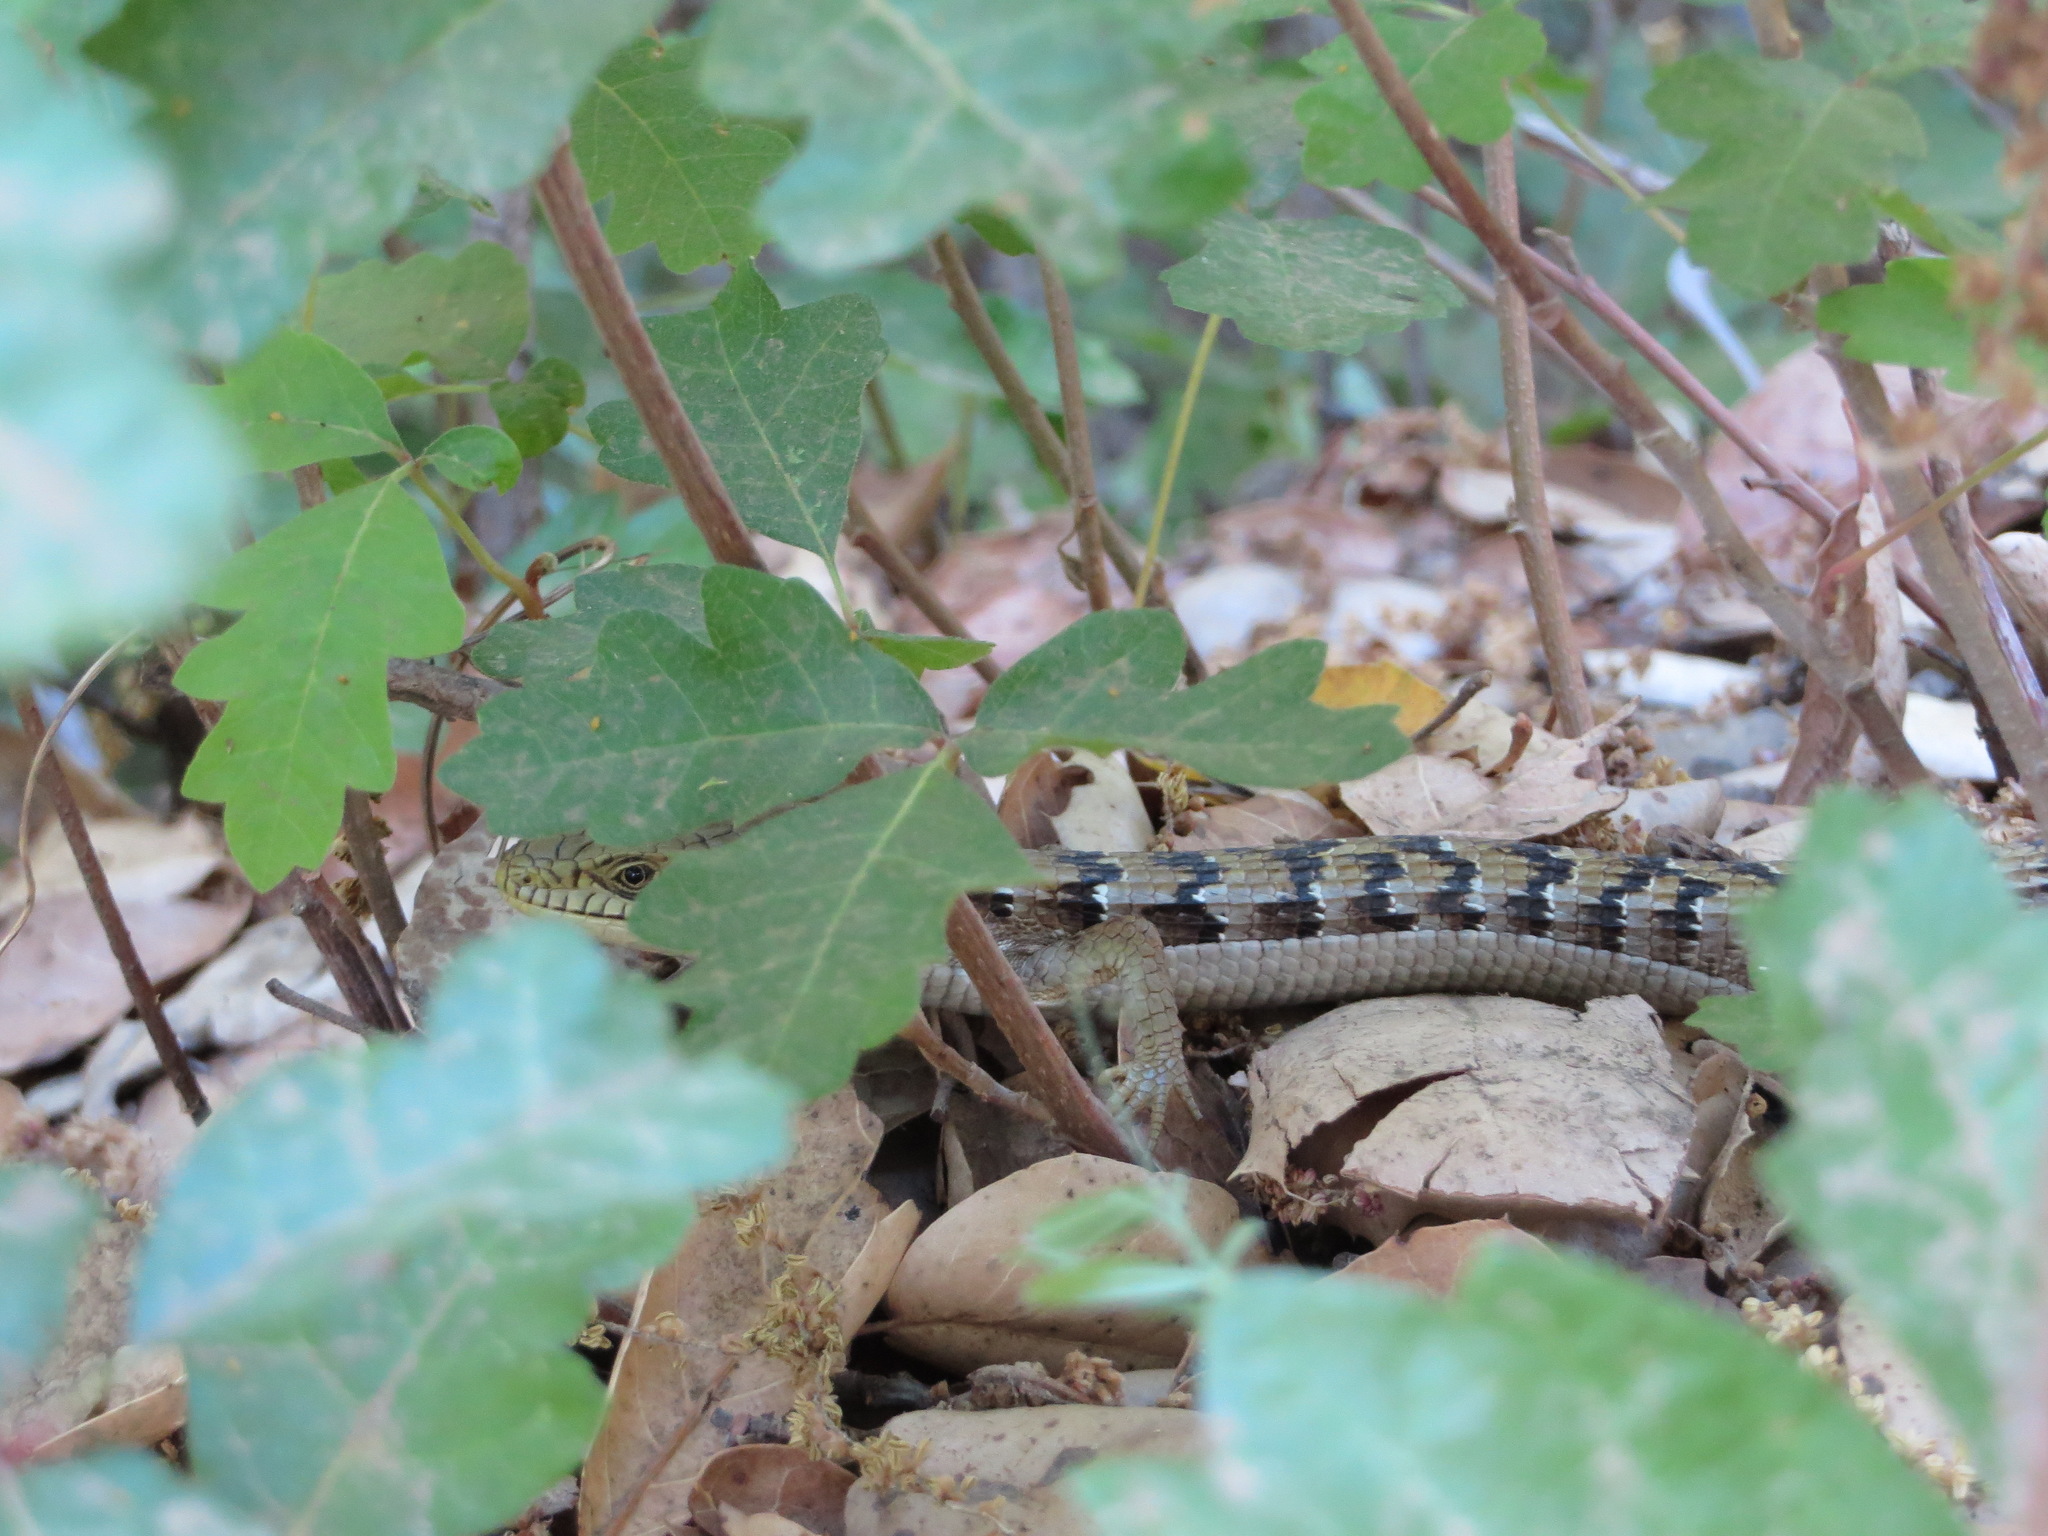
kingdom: Animalia
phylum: Chordata
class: Squamata
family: Anguidae
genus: Elgaria
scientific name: Elgaria multicarinata
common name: Southern alligator lizard
